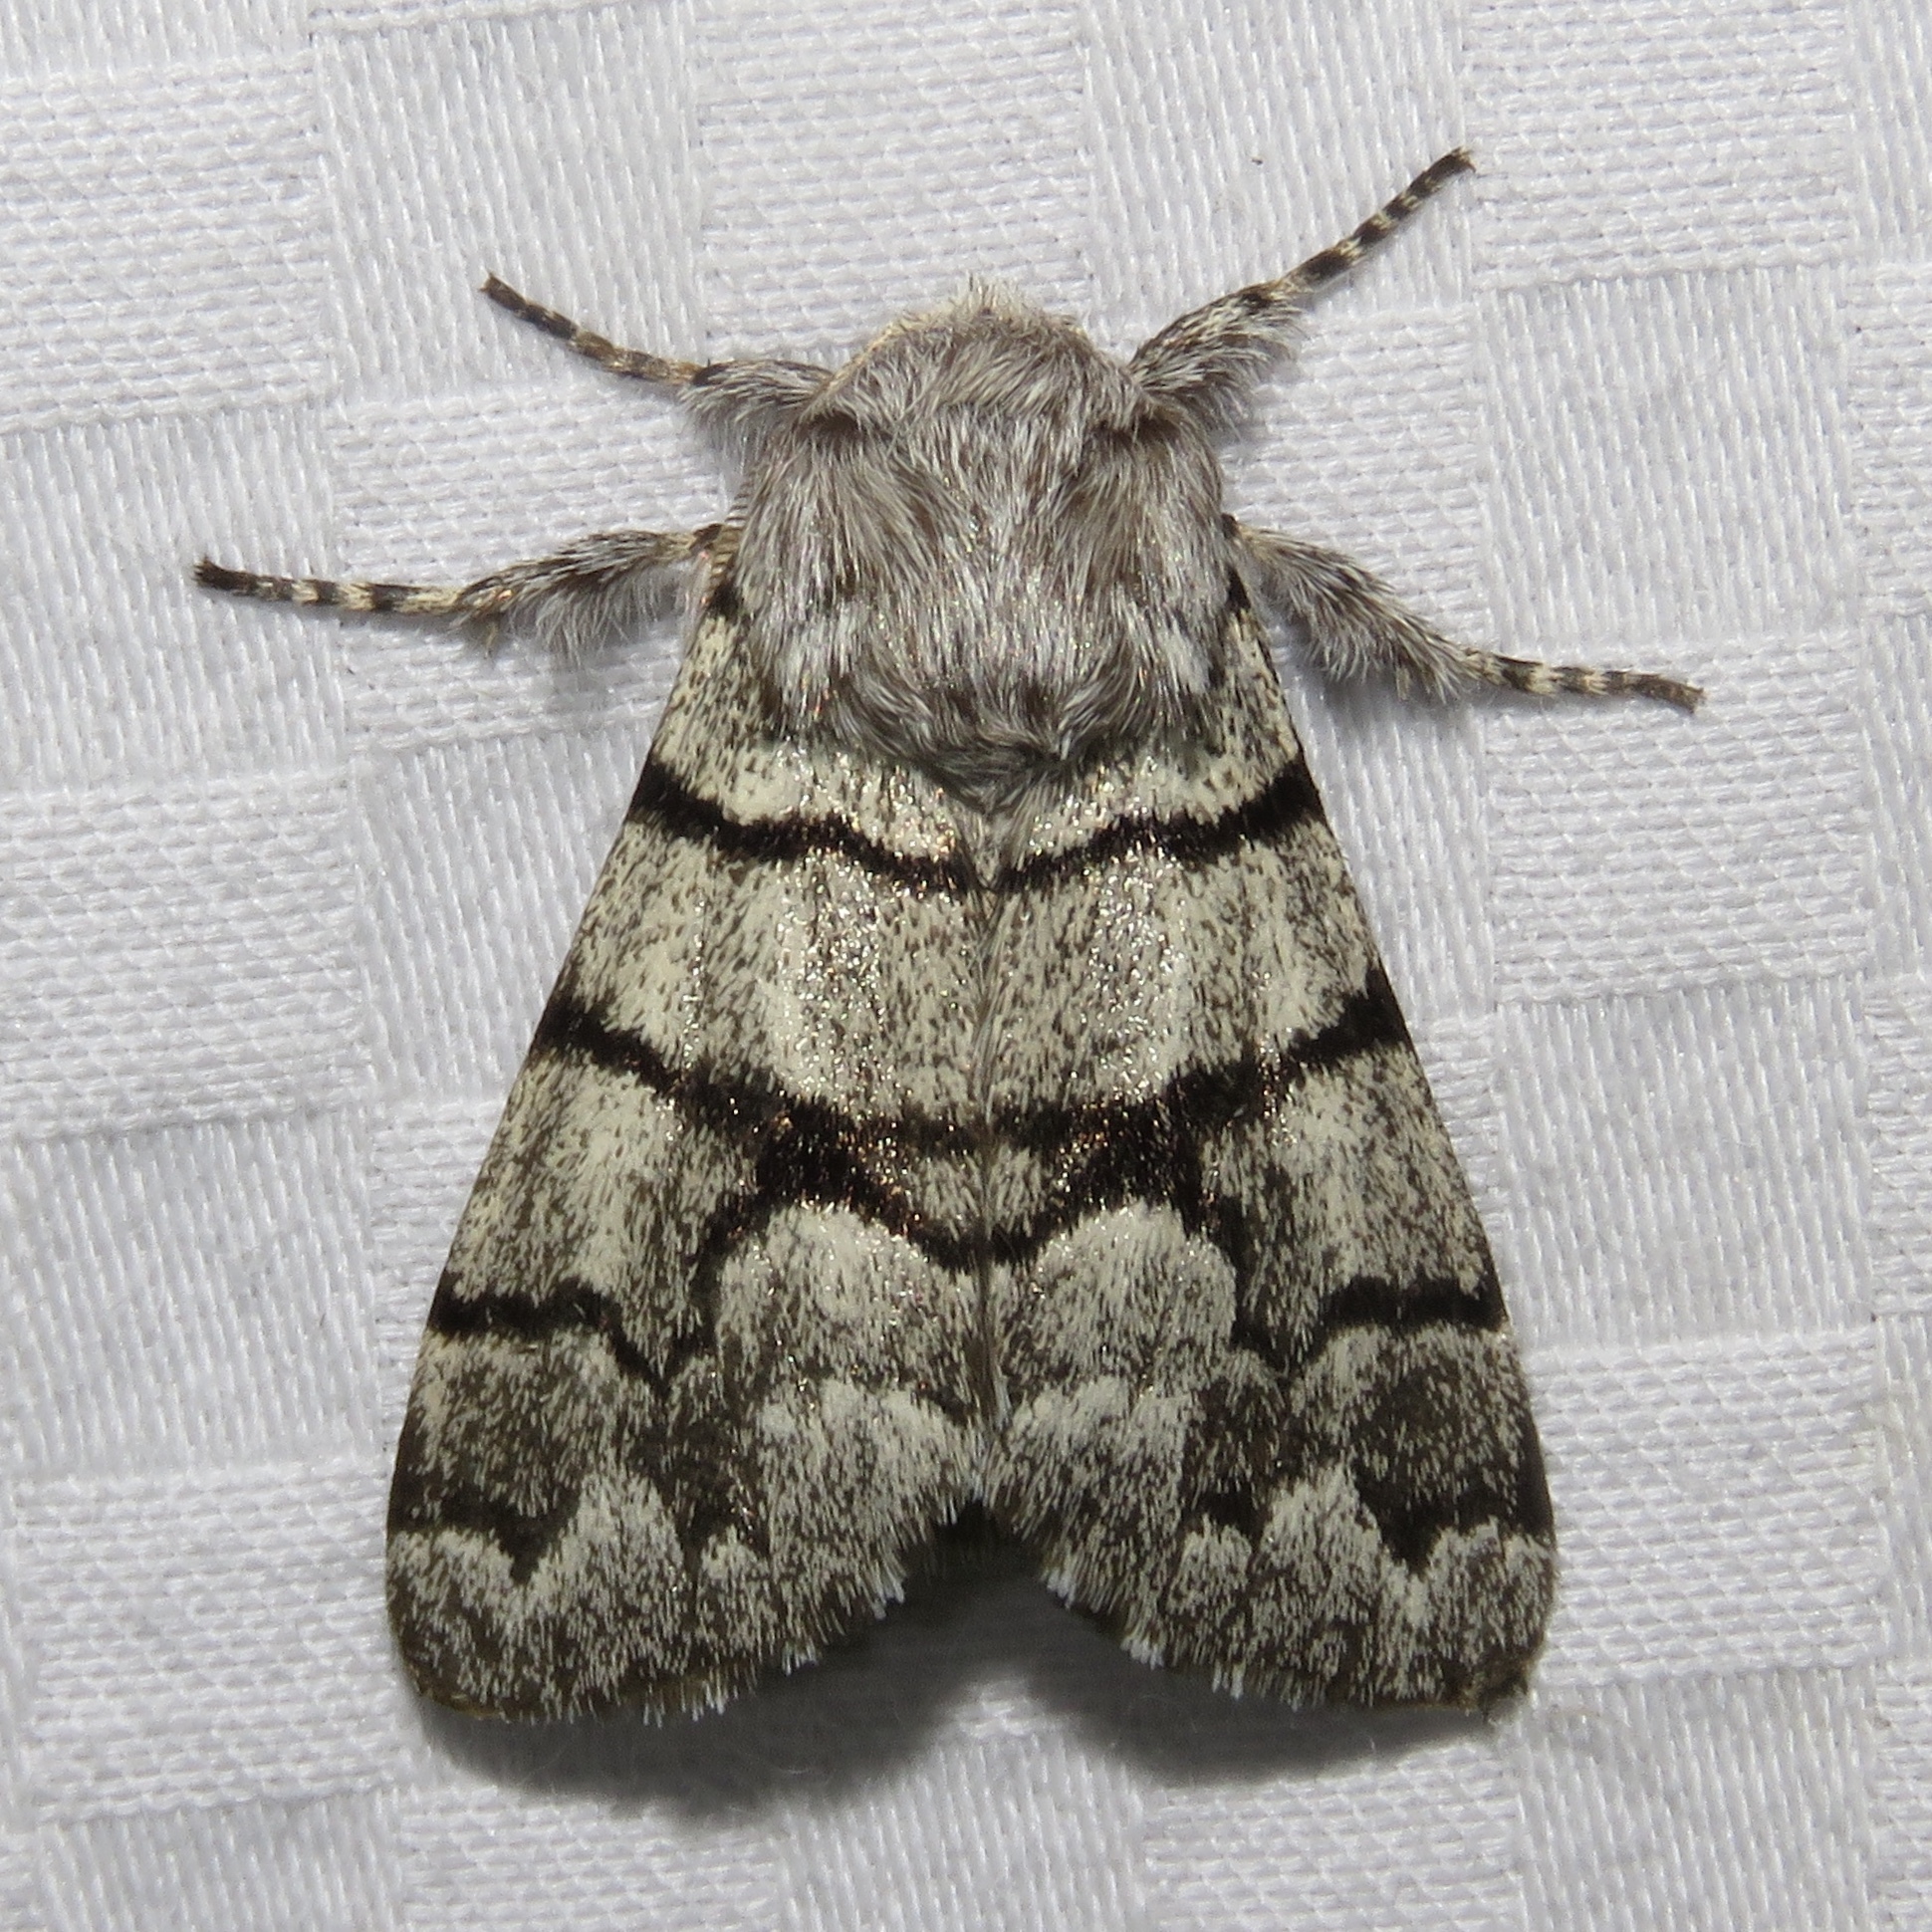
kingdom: Animalia
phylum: Arthropoda
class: Insecta
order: Lepidoptera
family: Noctuidae
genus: Panthea
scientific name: Panthea furcilla
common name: Eastern panthea moth
